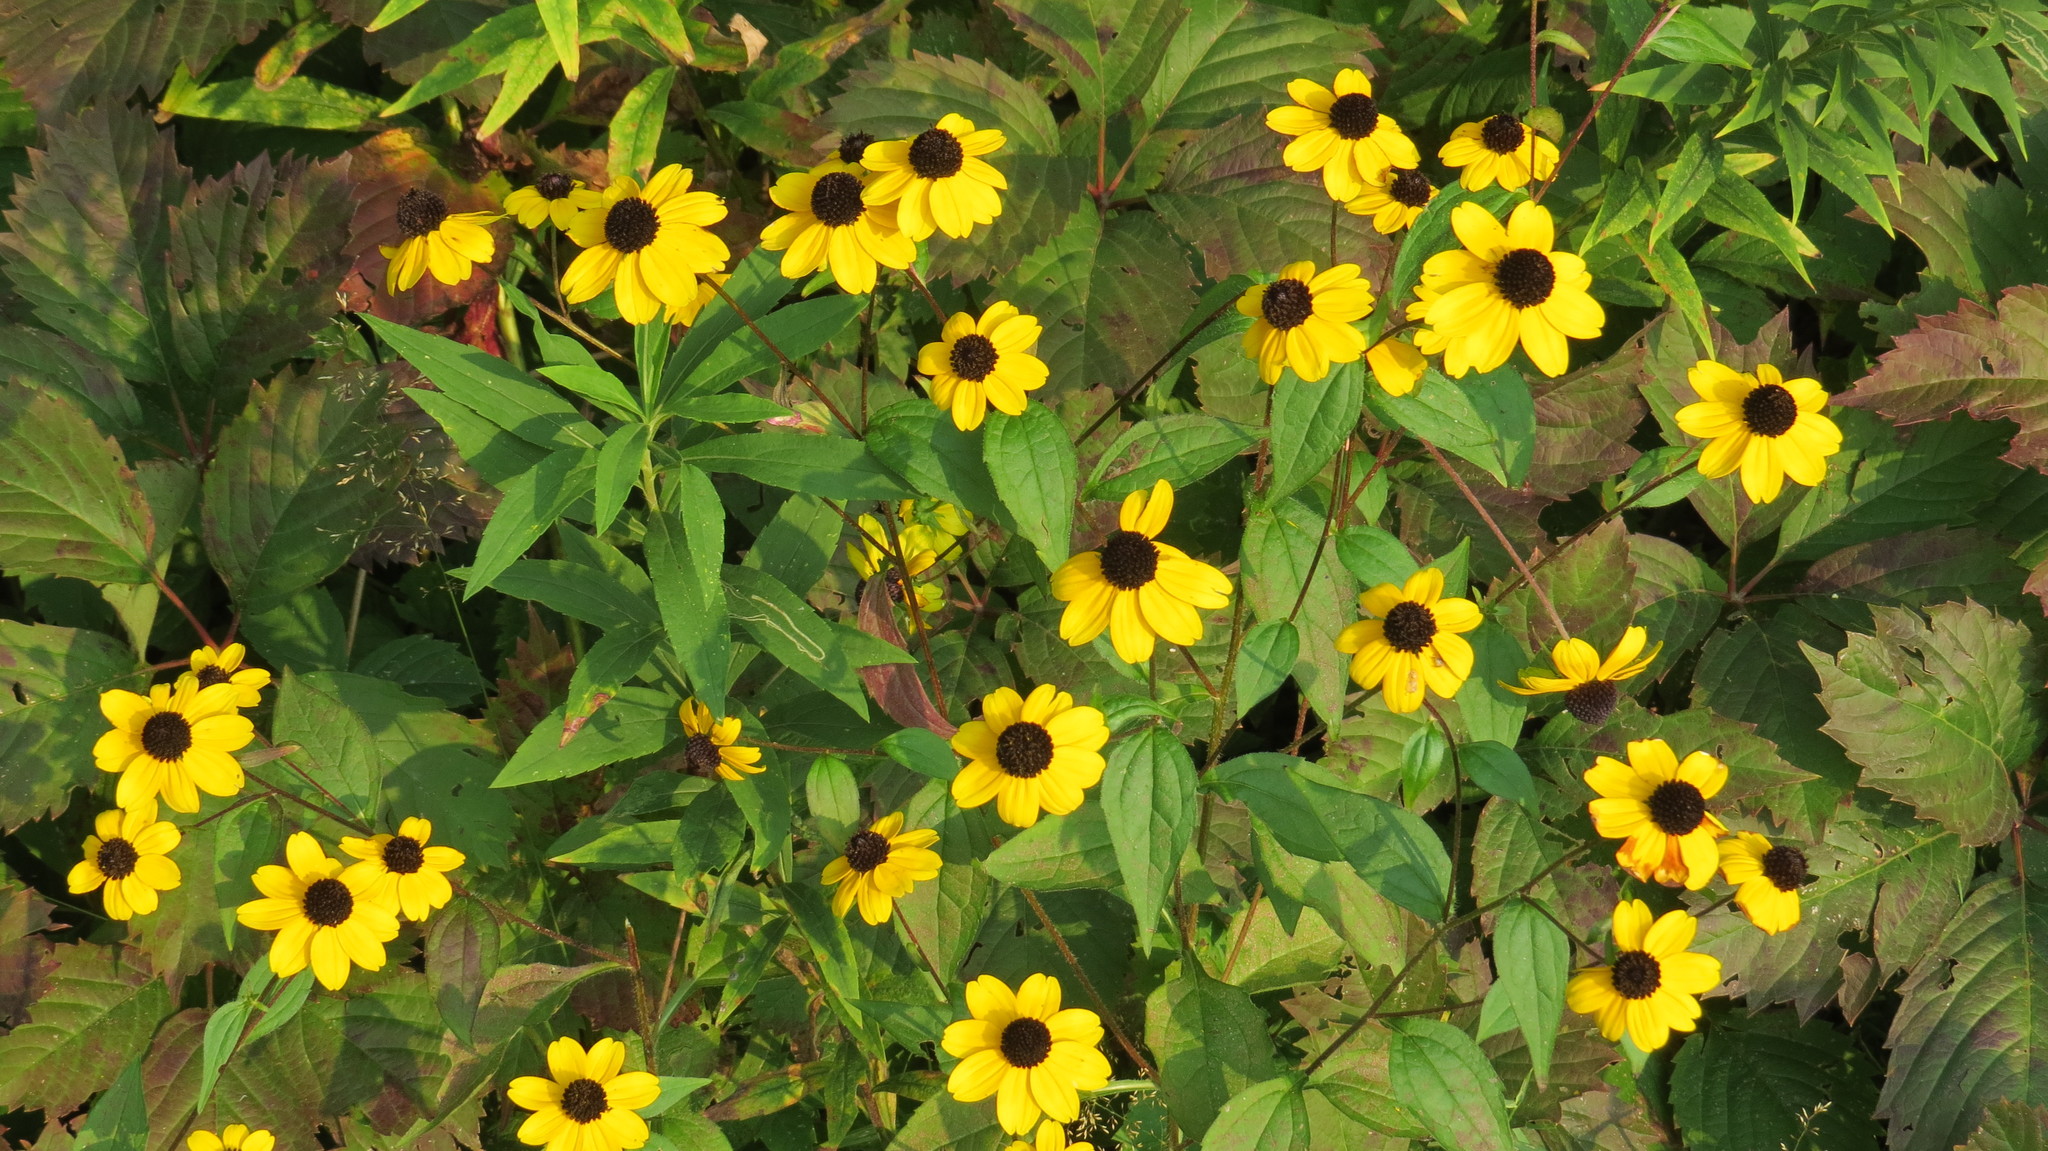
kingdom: Plantae
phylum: Tracheophyta
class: Magnoliopsida
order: Asterales
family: Asteraceae
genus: Rudbeckia
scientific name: Rudbeckia triloba
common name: Thin-leaved coneflower
